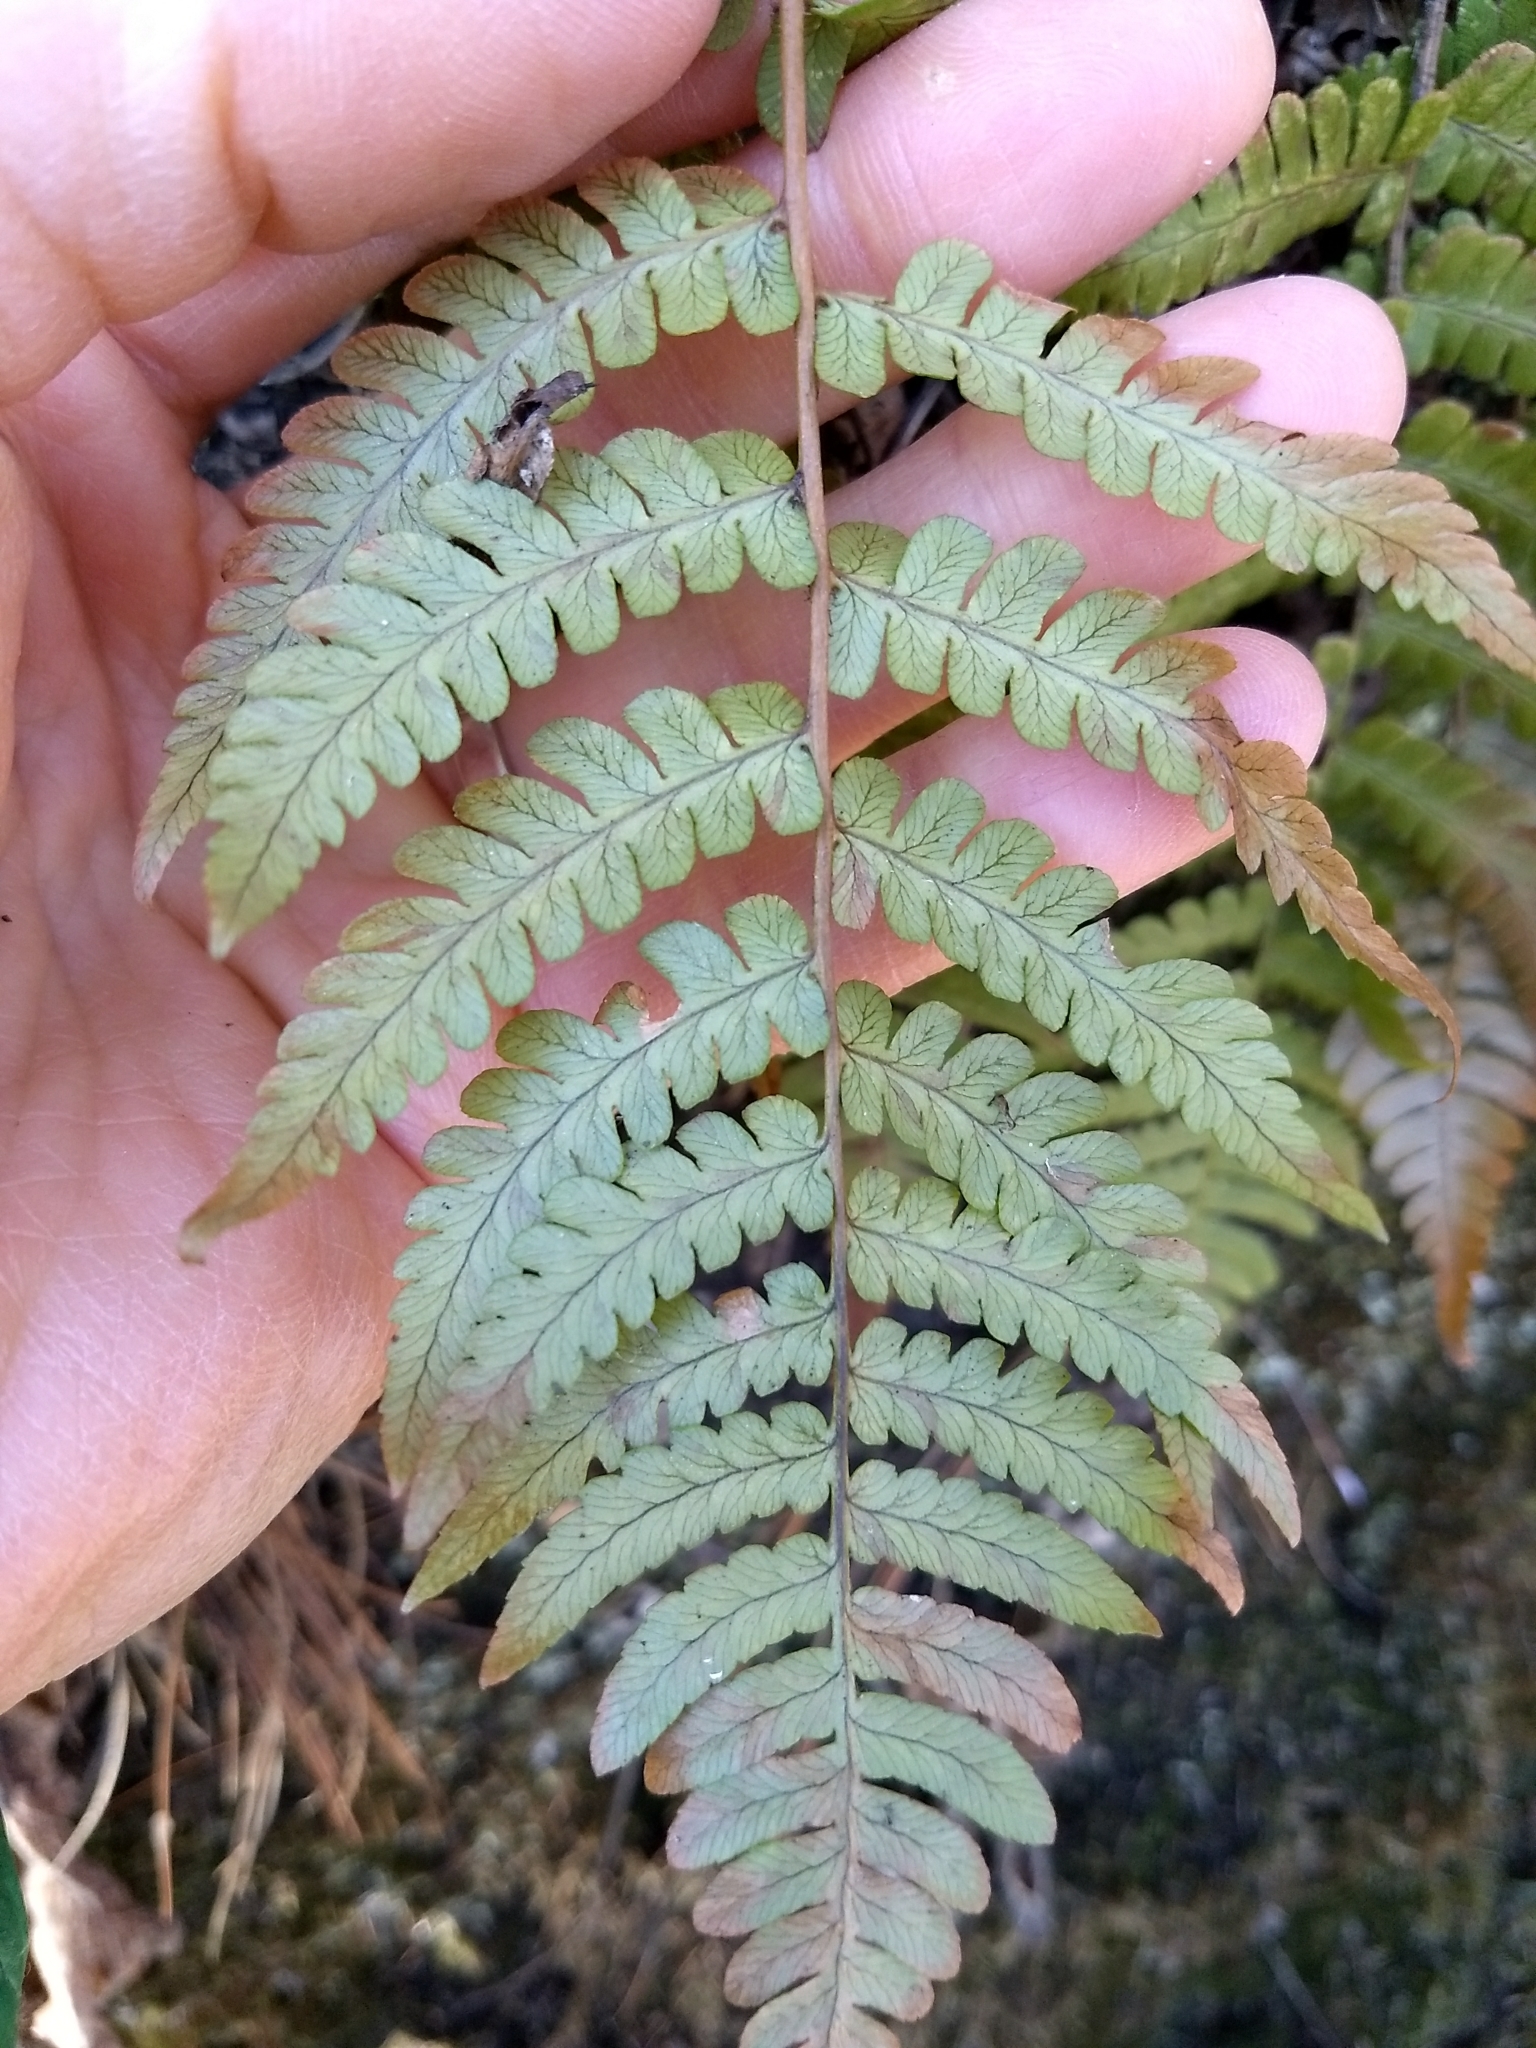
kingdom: Plantae
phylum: Tracheophyta
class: Polypodiopsida
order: Polypodiales
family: Dryopteridaceae
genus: Dryopteris
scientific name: Dryopteris marginalis
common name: Marginal wood fern
